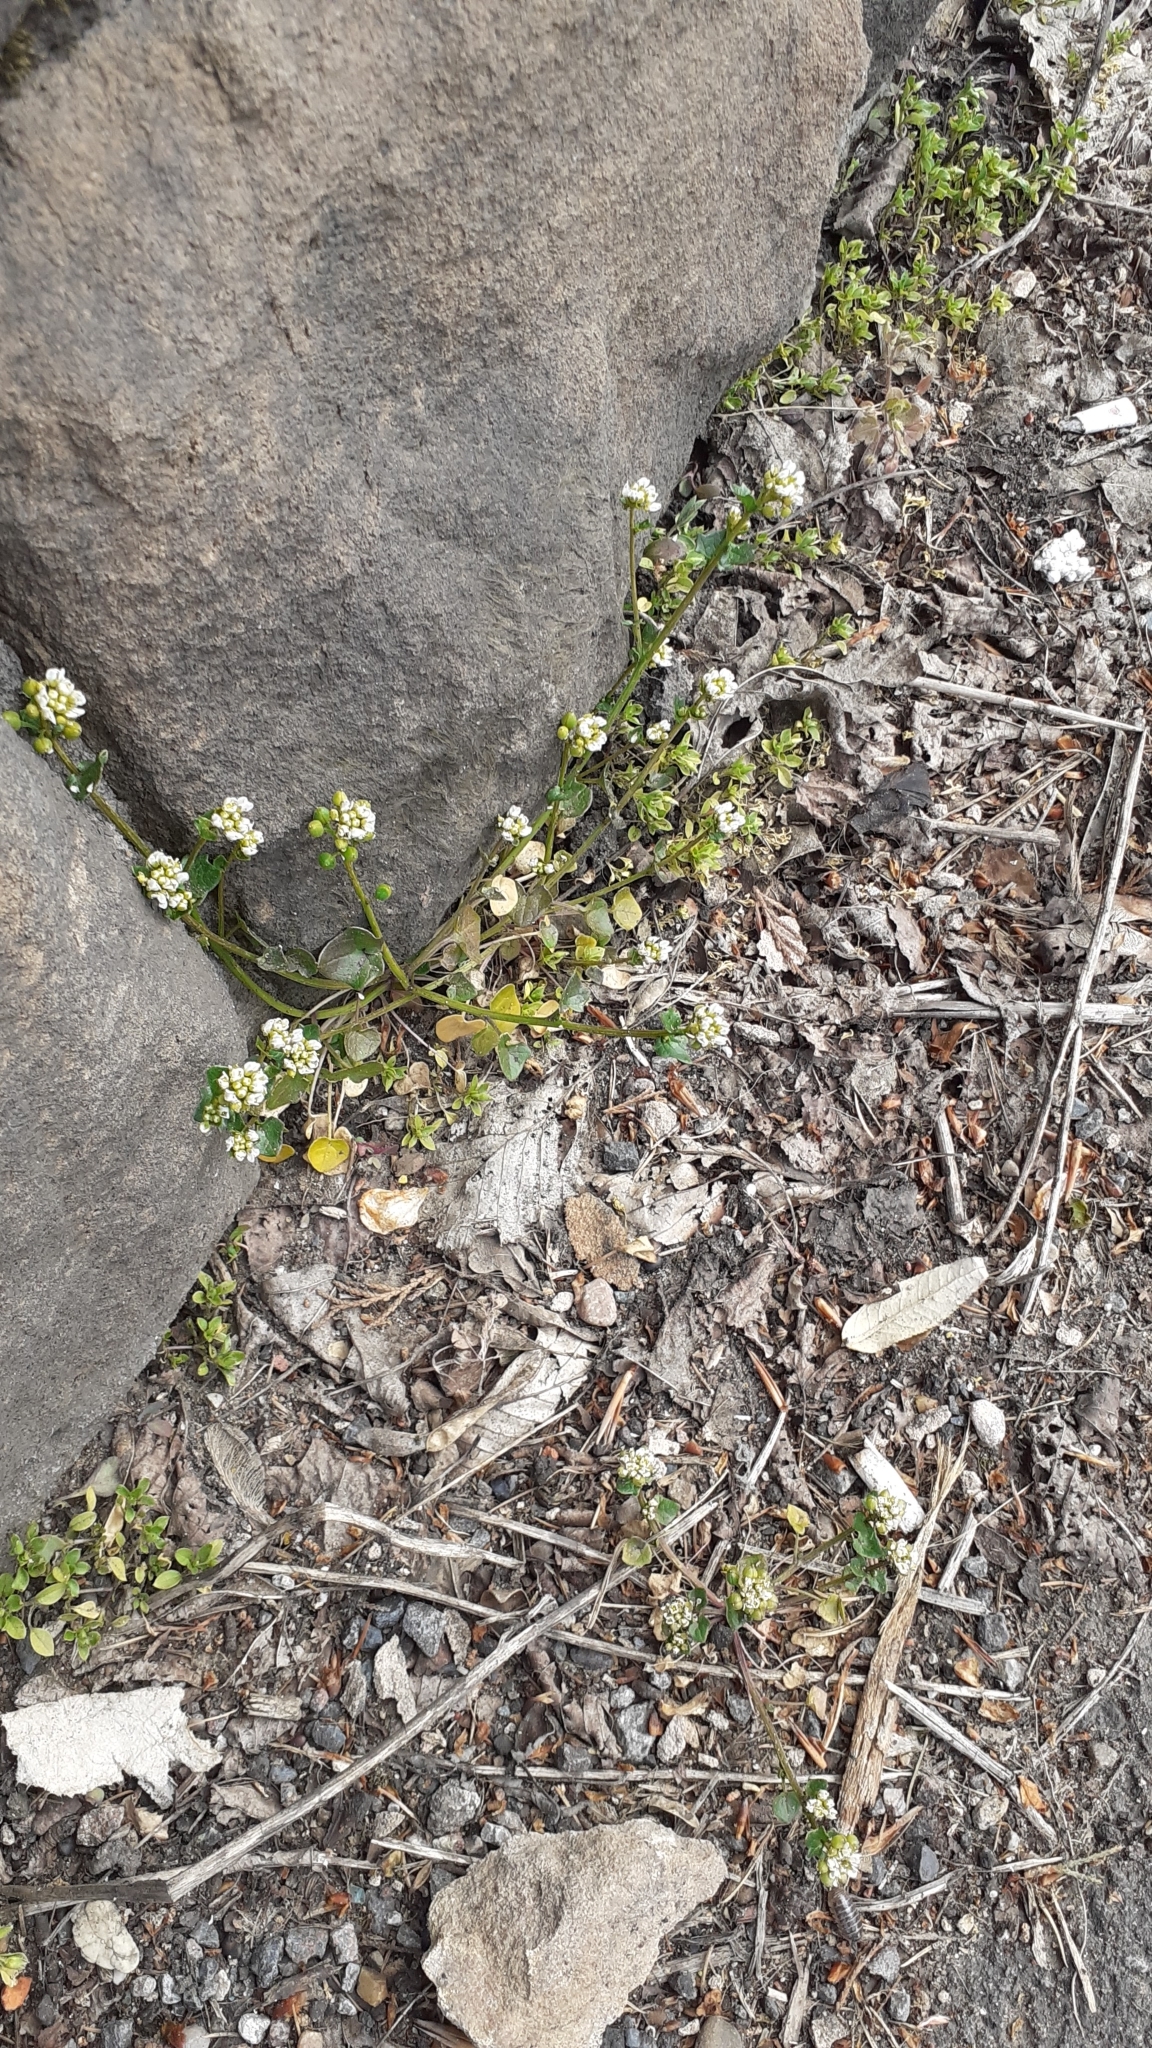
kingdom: Plantae
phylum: Tracheophyta
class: Magnoliopsida
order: Brassicales
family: Brassicaceae
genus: Cochlearia
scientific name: Cochlearia danica
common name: Early scurvygrass
